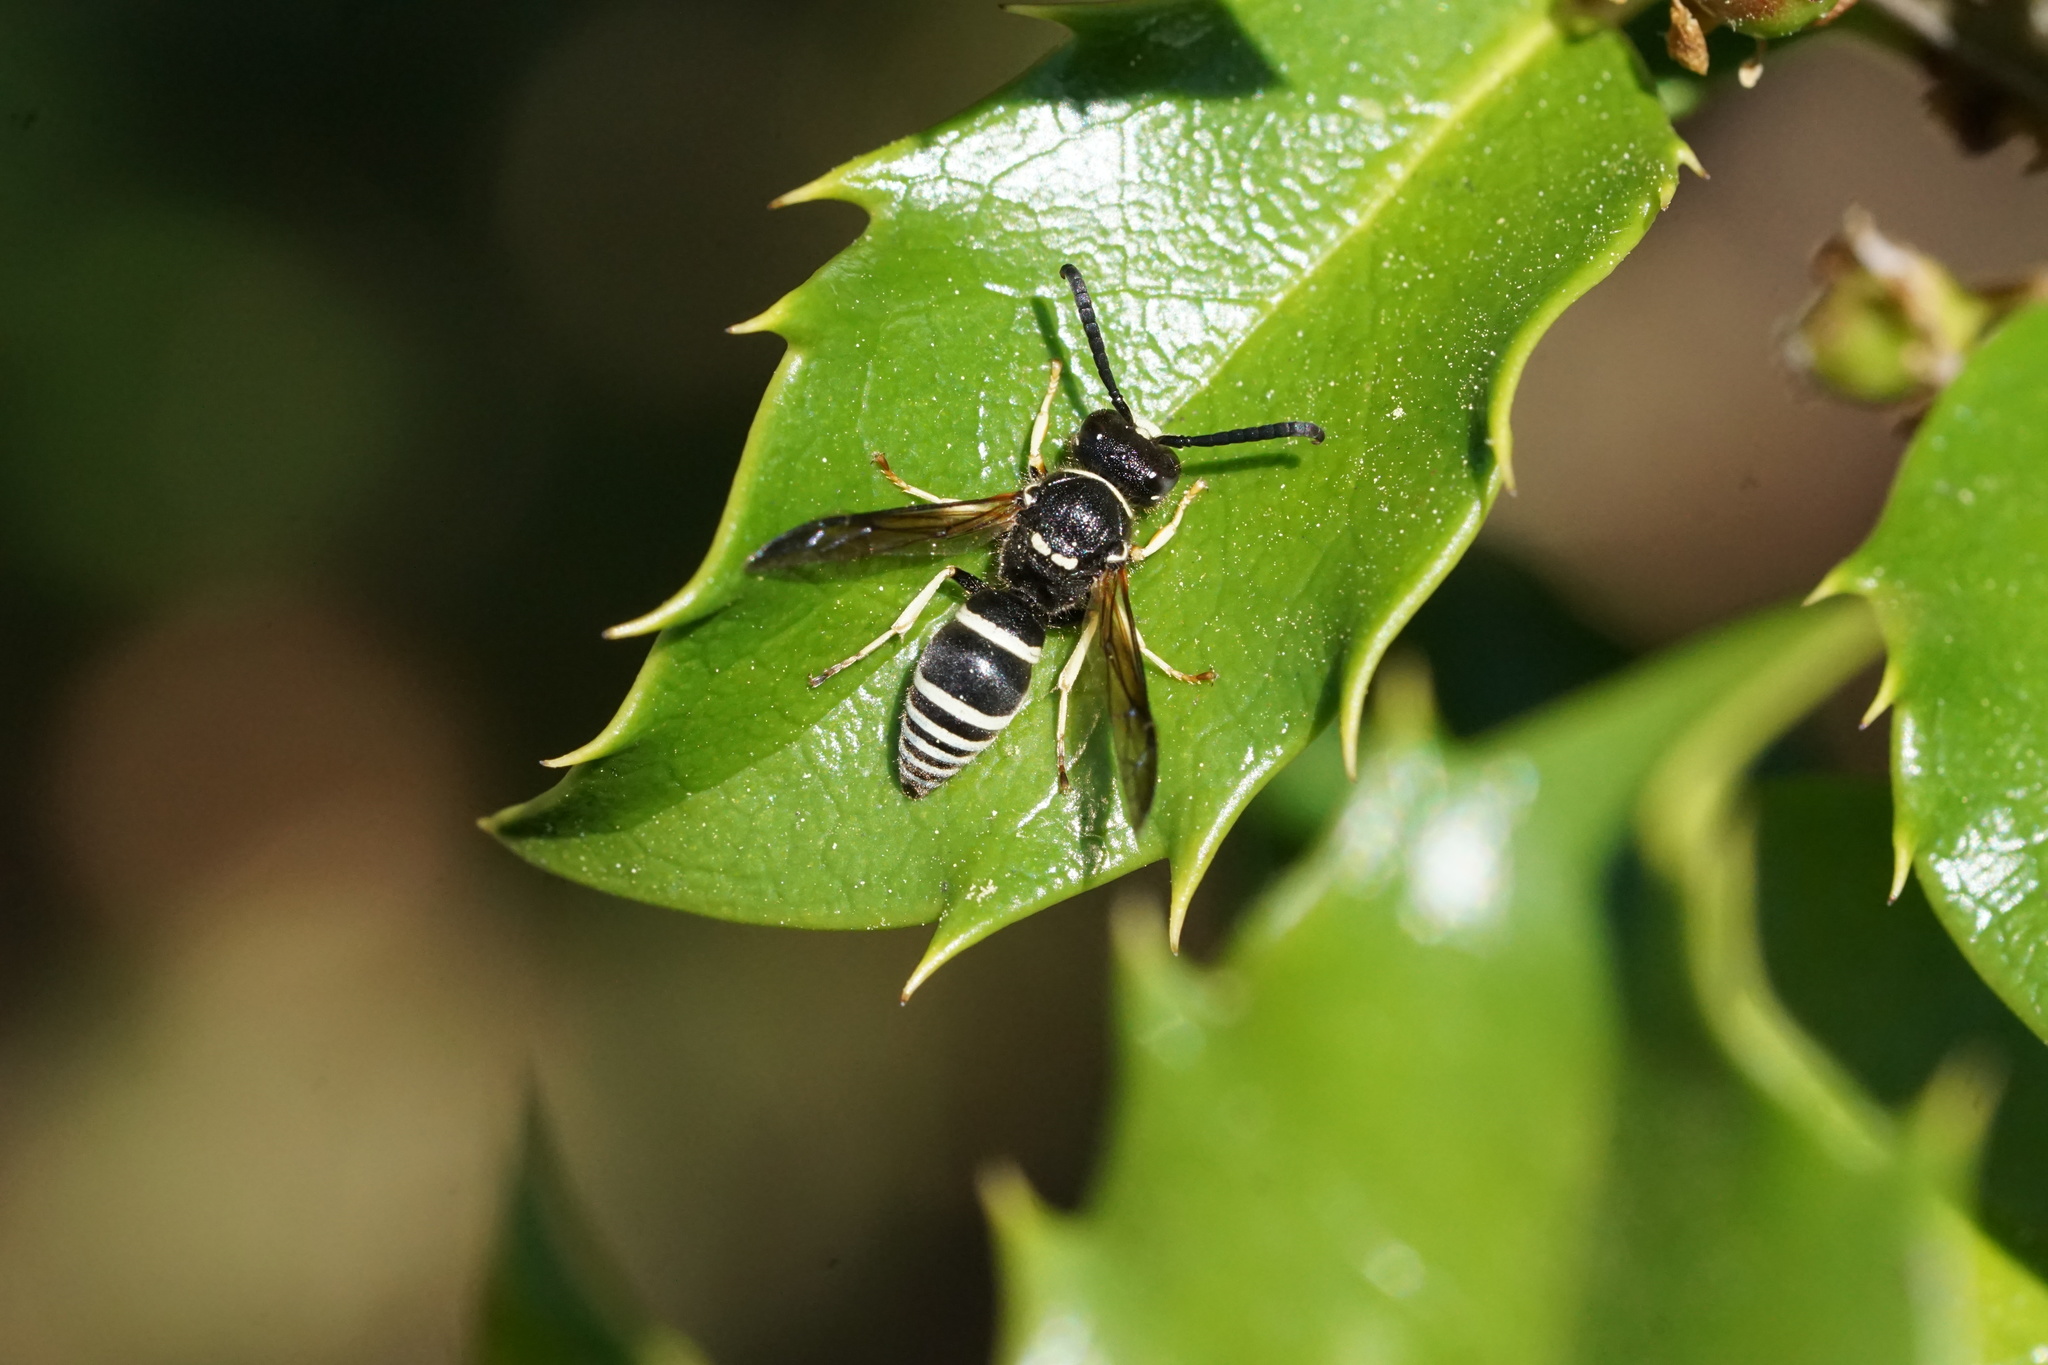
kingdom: Animalia
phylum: Arthropoda
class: Insecta
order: Hymenoptera
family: Vespidae
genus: Ancistrocerus
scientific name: Ancistrocerus
